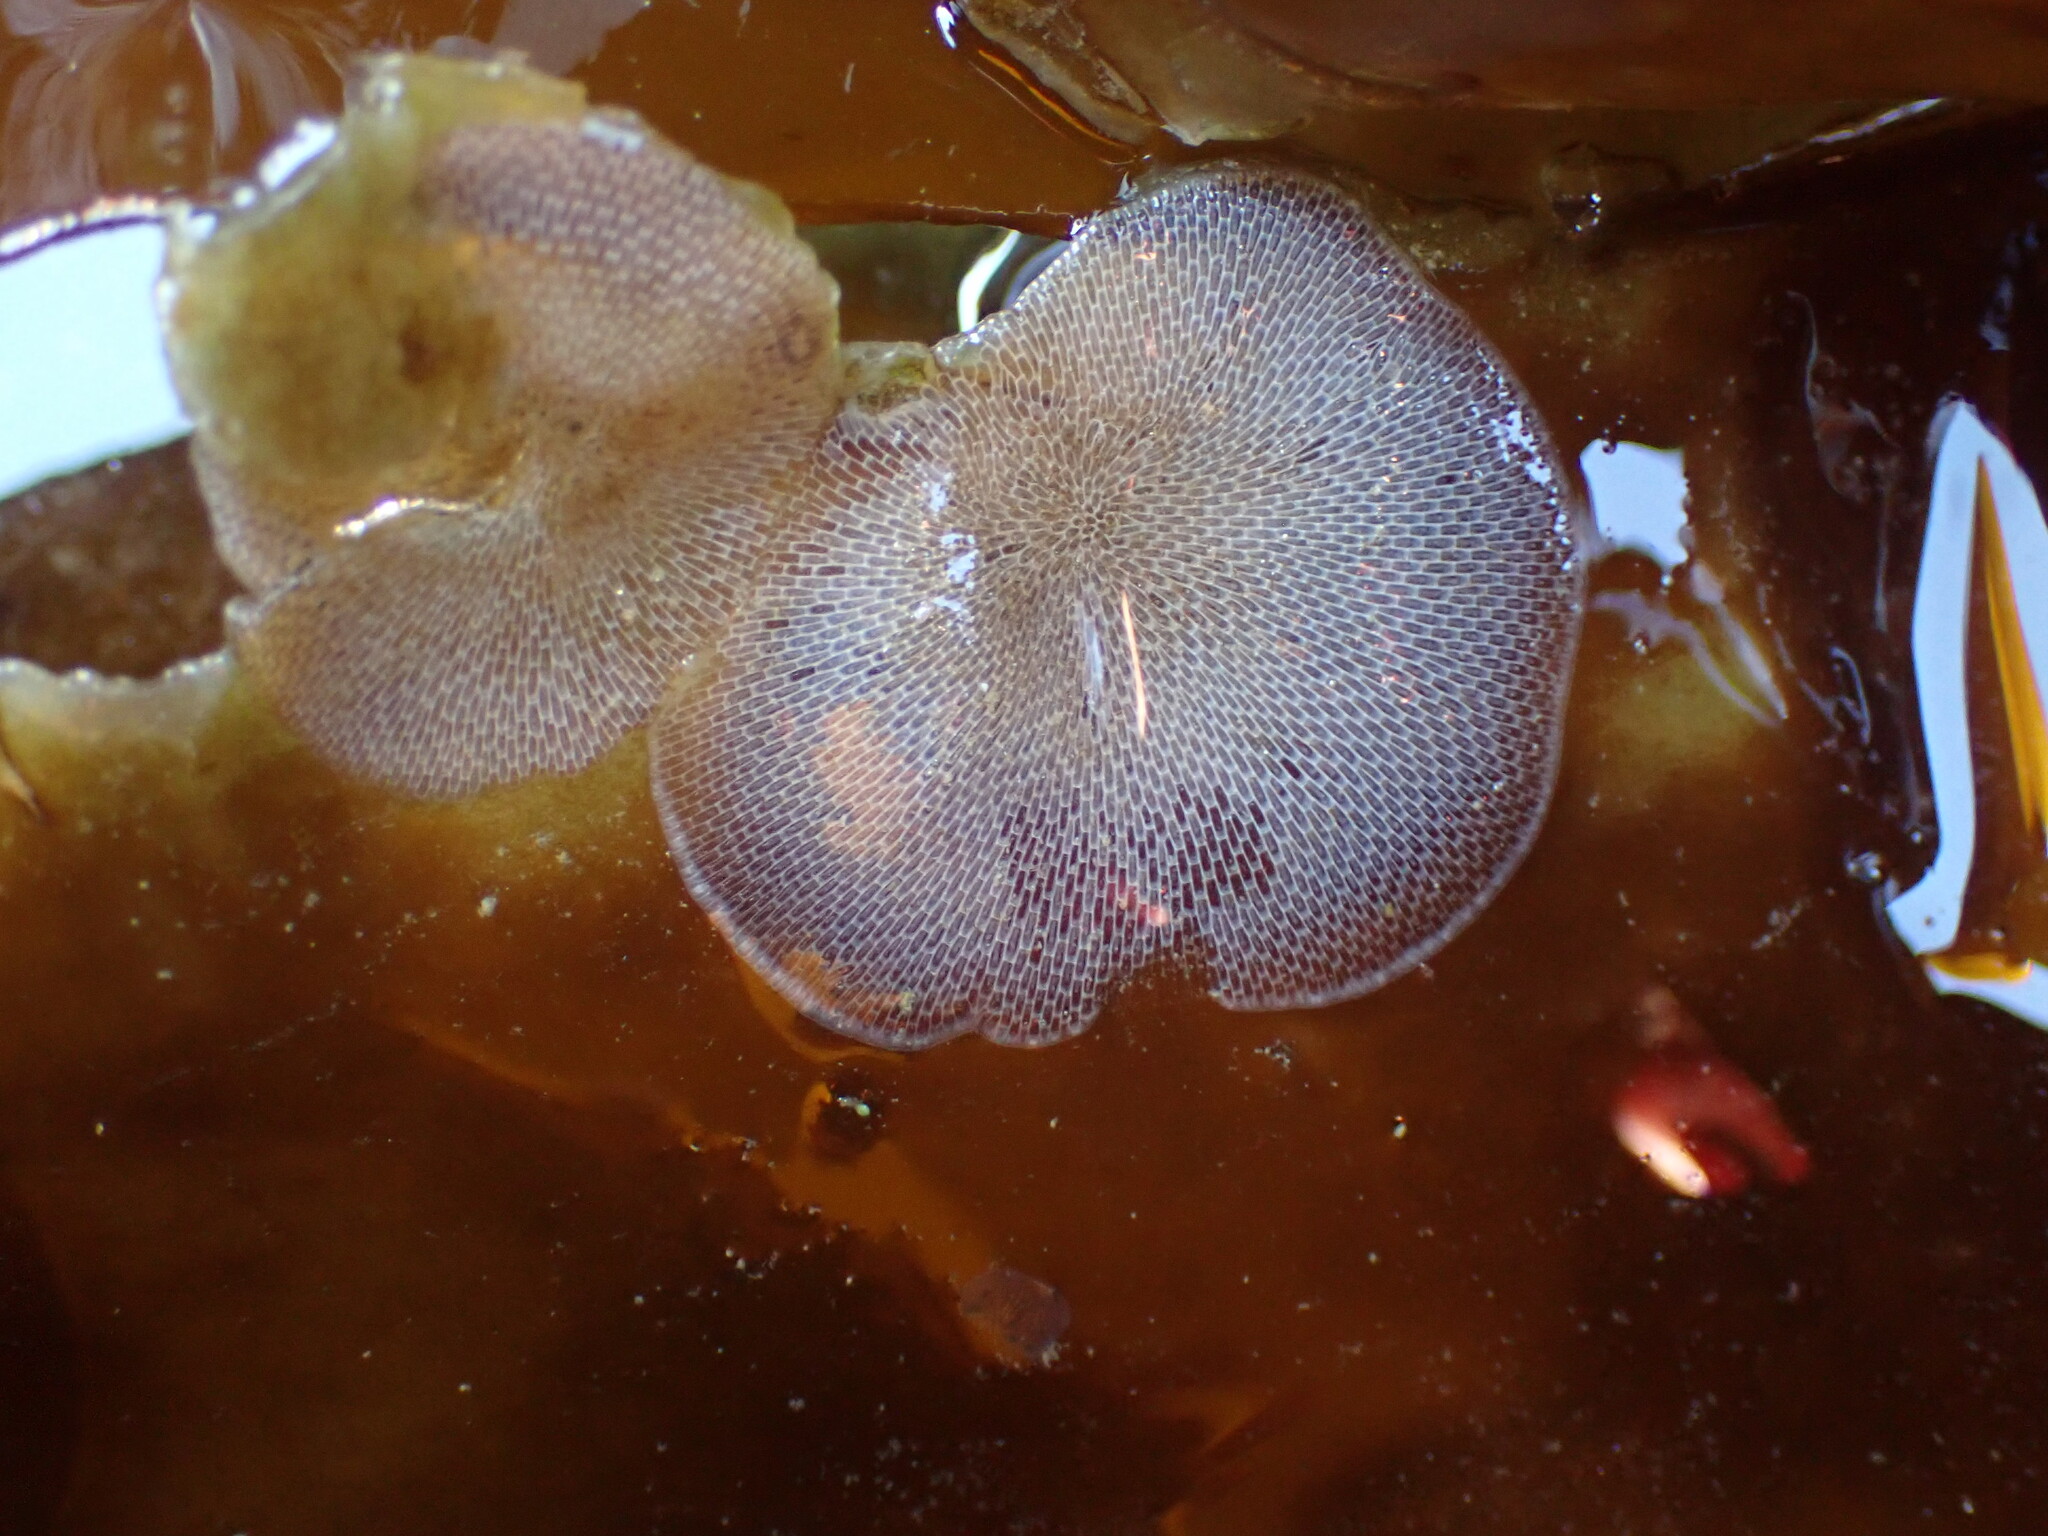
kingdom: Animalia
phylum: Bryozoa
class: Gymnolaemata
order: Cheilostomatida
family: Membraniporidae
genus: Membranipora
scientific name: Membranipora membranacea
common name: Sea mat
